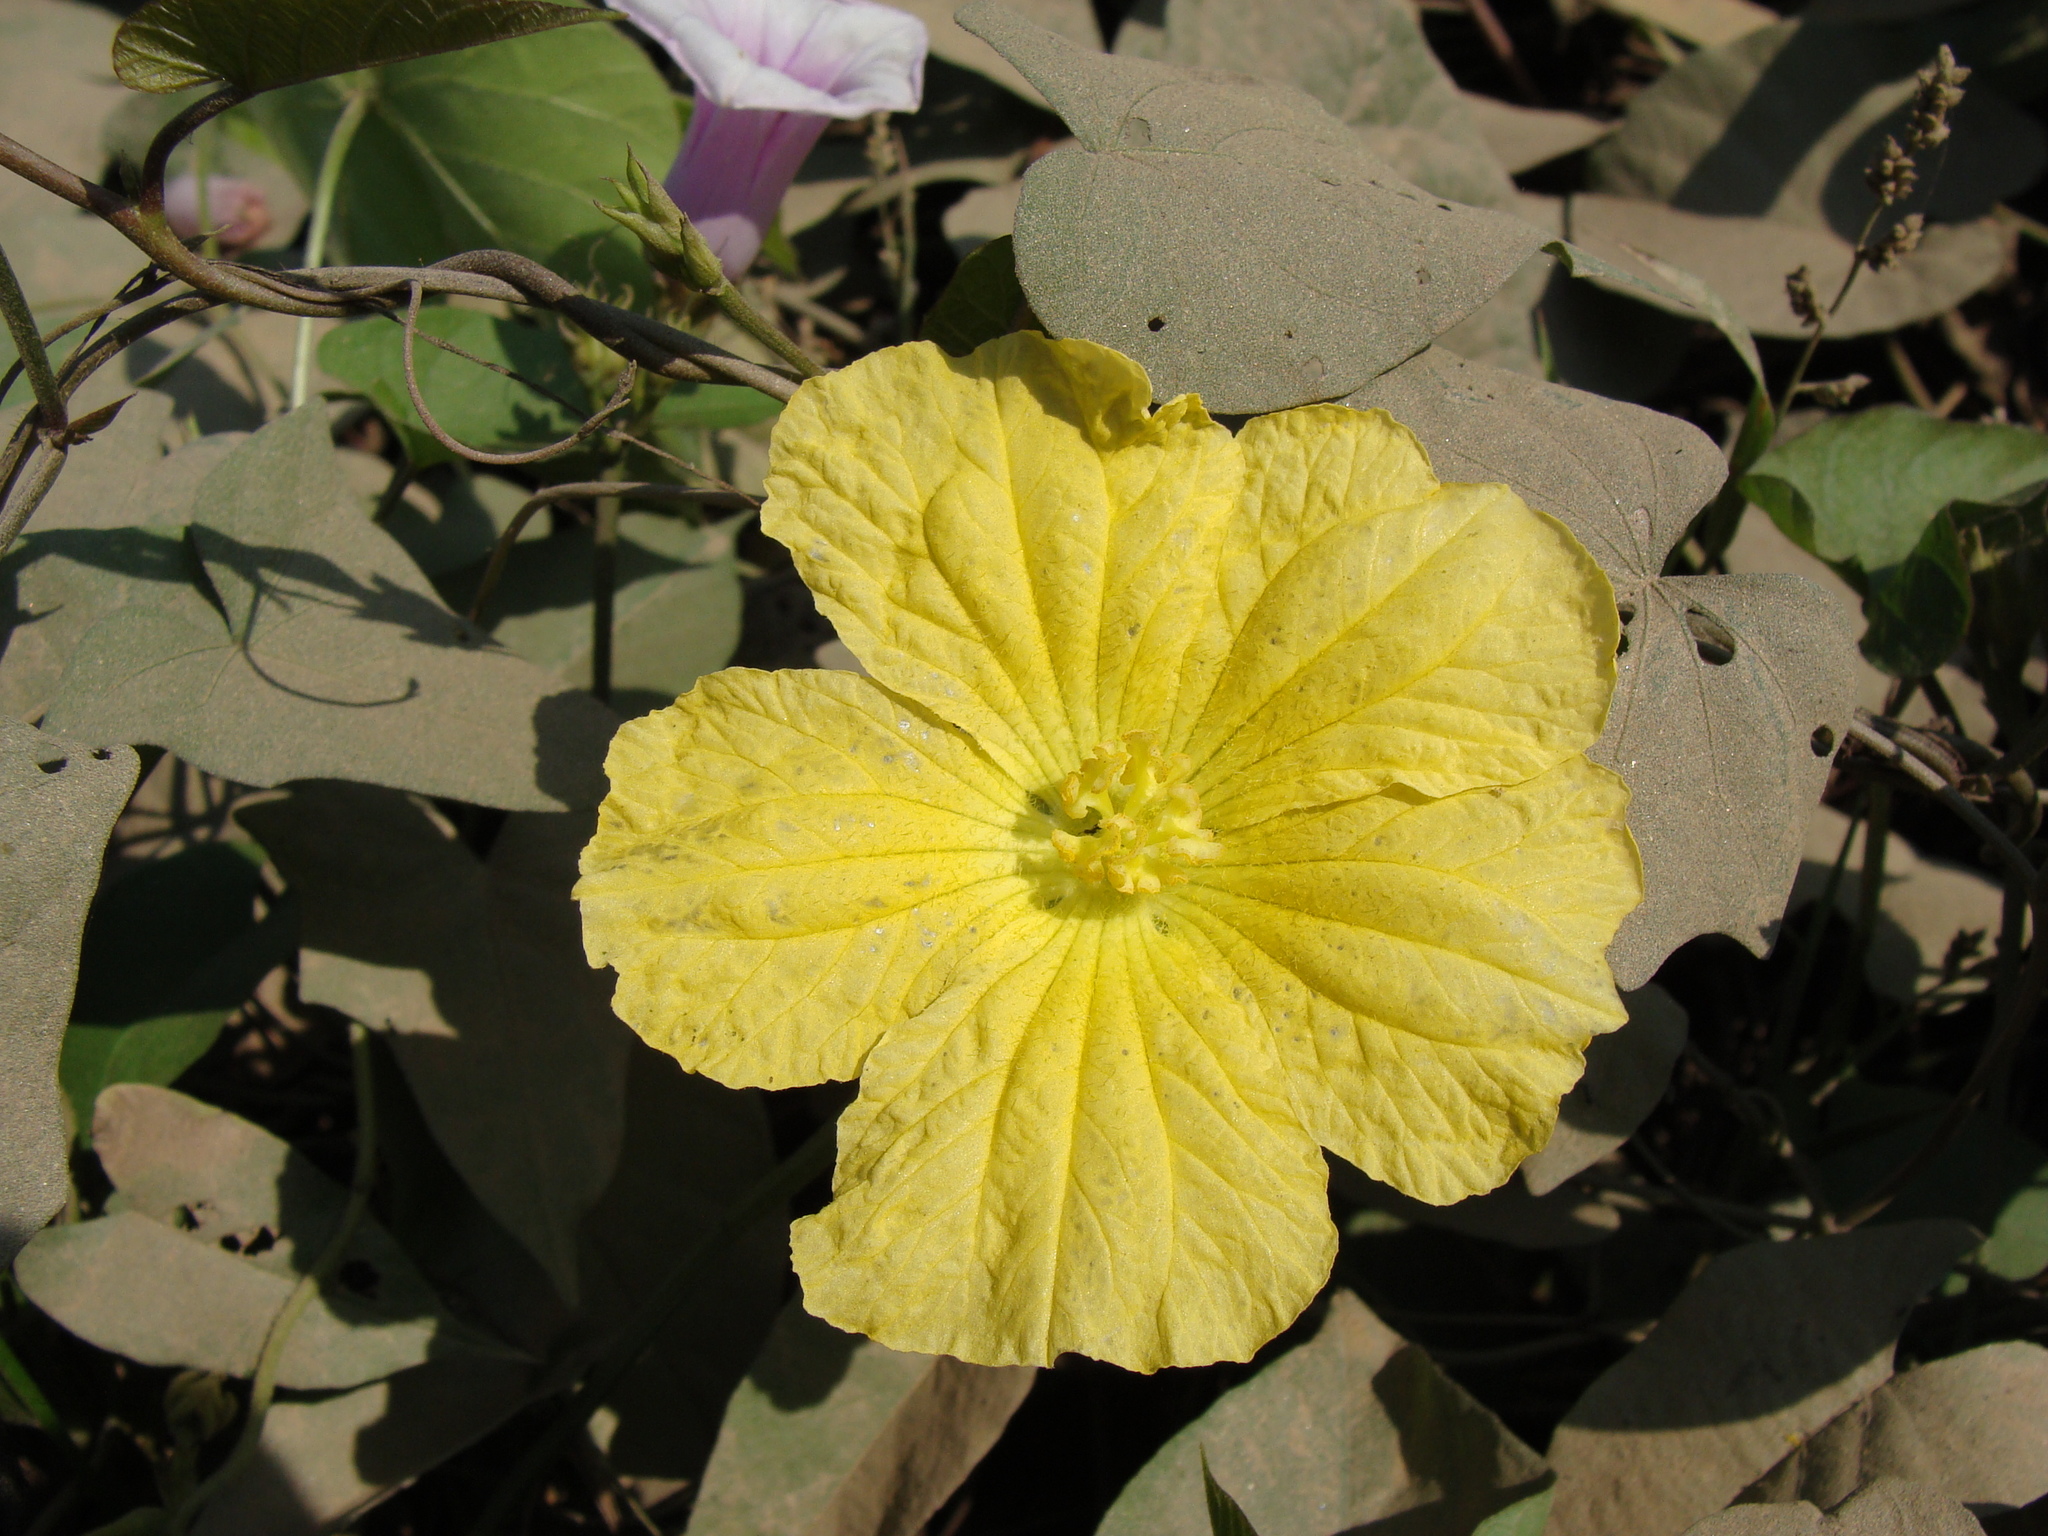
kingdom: Plantae
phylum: Tracheophyta
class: Magnoliopsida
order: Cucurbitales
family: Cucurbitaceae
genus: Luffa
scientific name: Luffa aegyptiaca
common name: Sponge gourd
